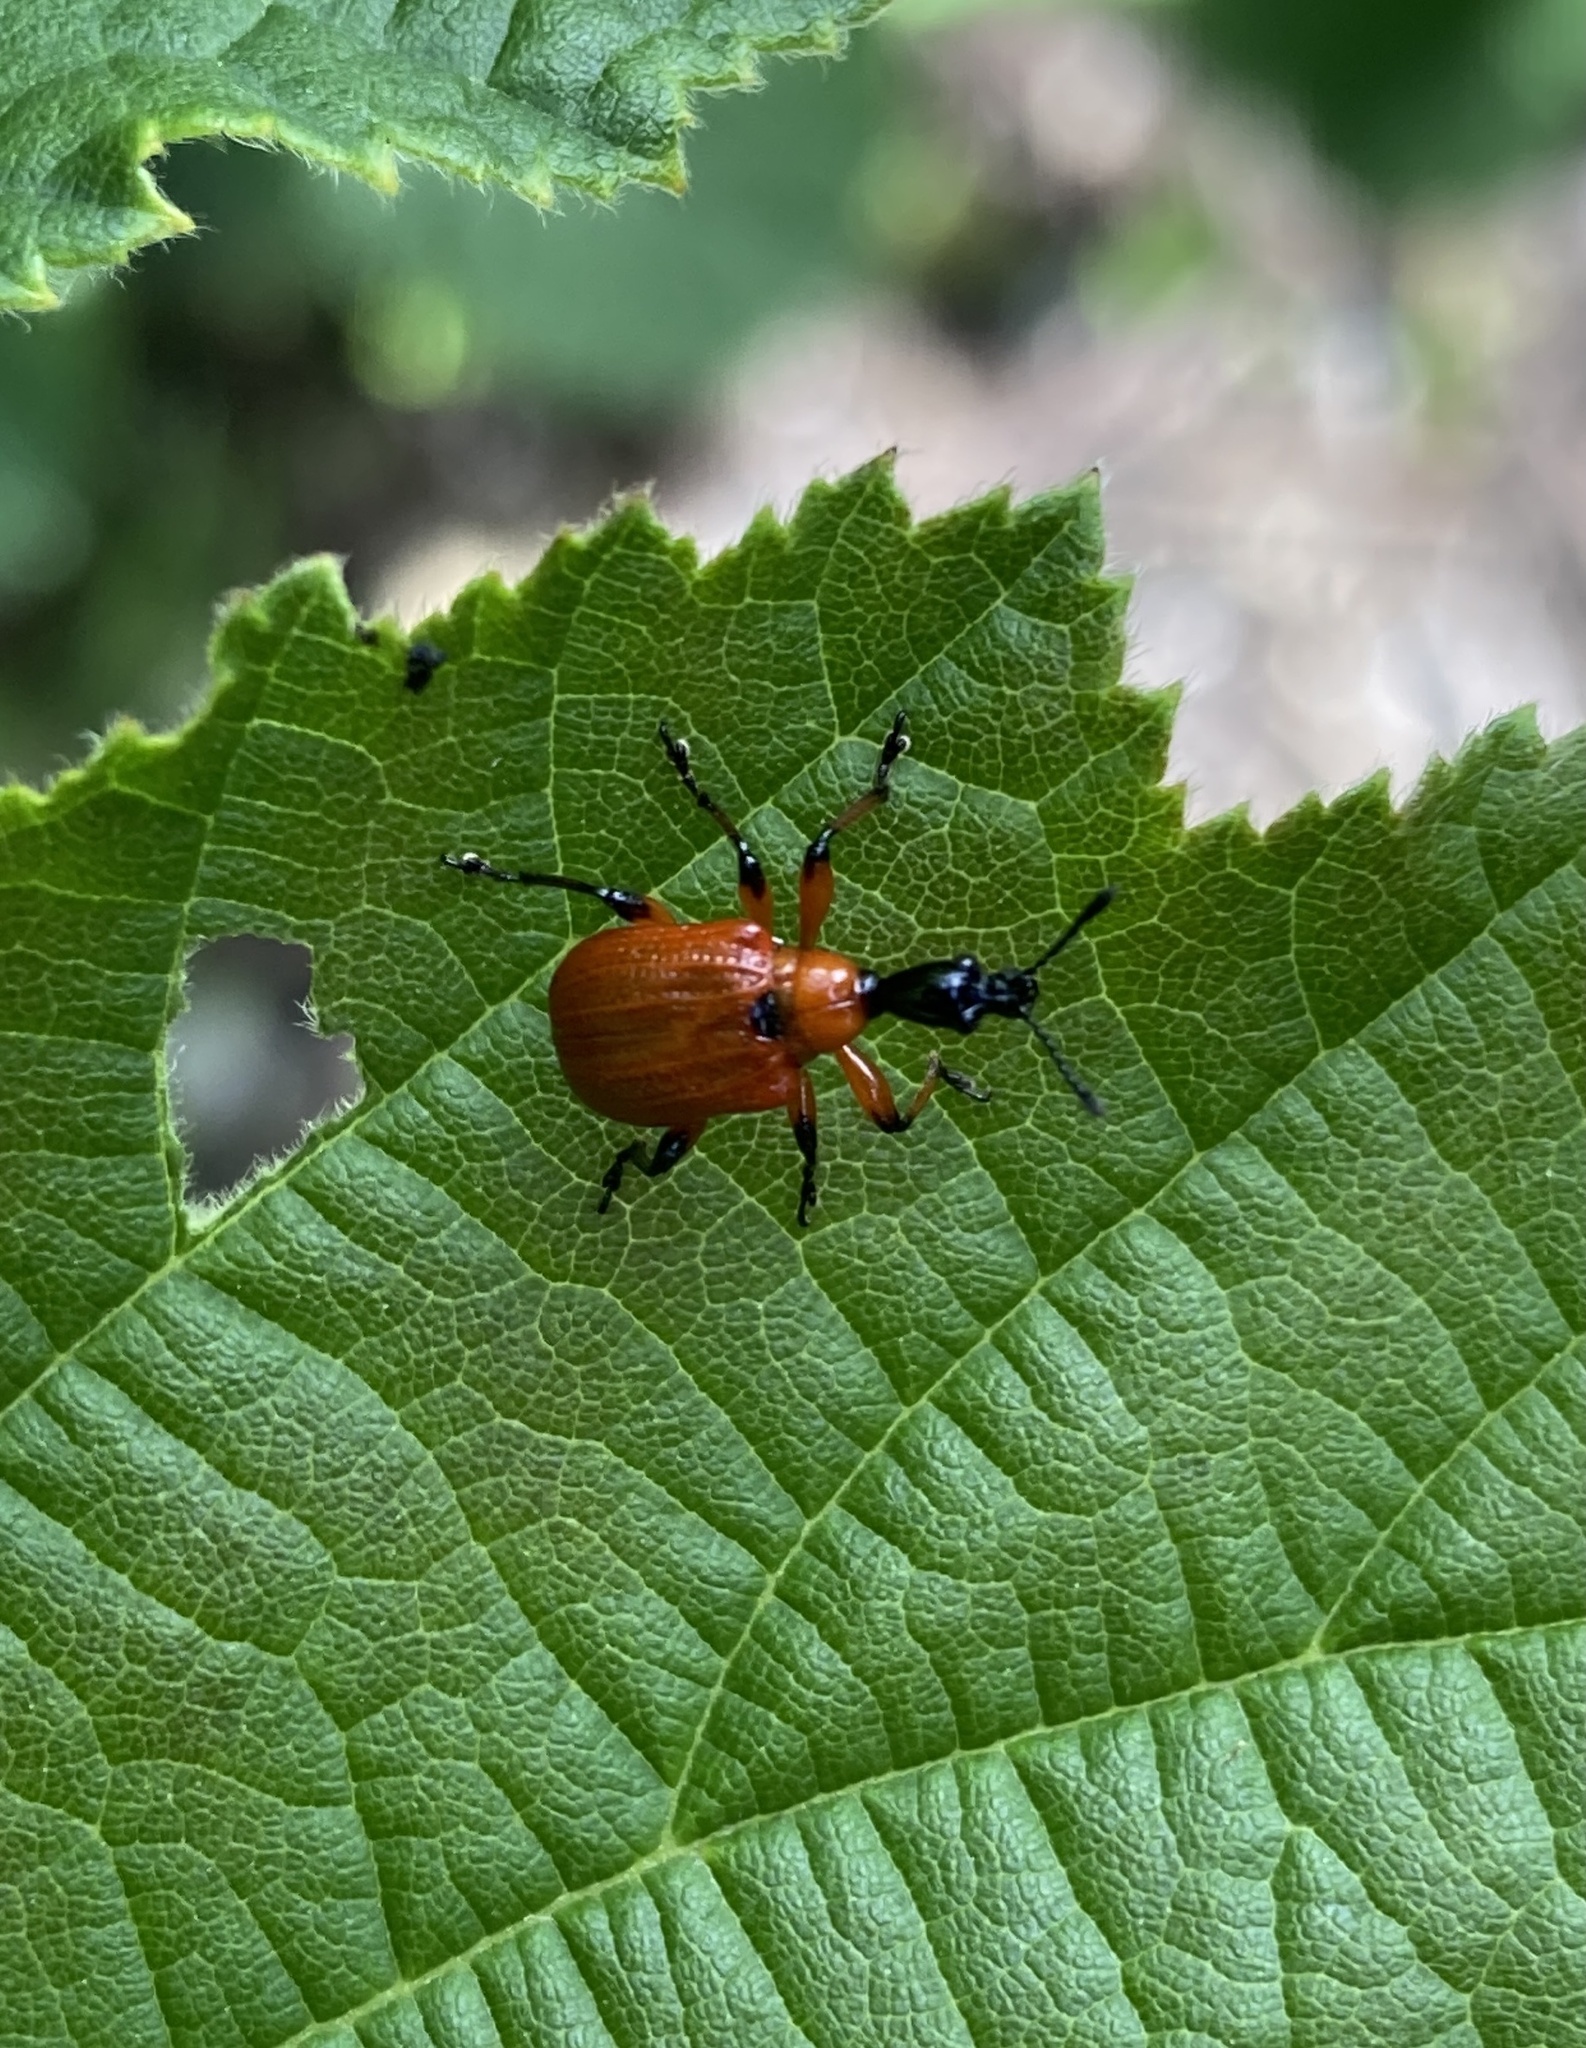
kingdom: Animalia
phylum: Arthropoda
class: Insecta
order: Coleoptera
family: Attelabidae
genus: Apoderus
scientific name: Apoderus coryli
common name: Hazel leaf roller
